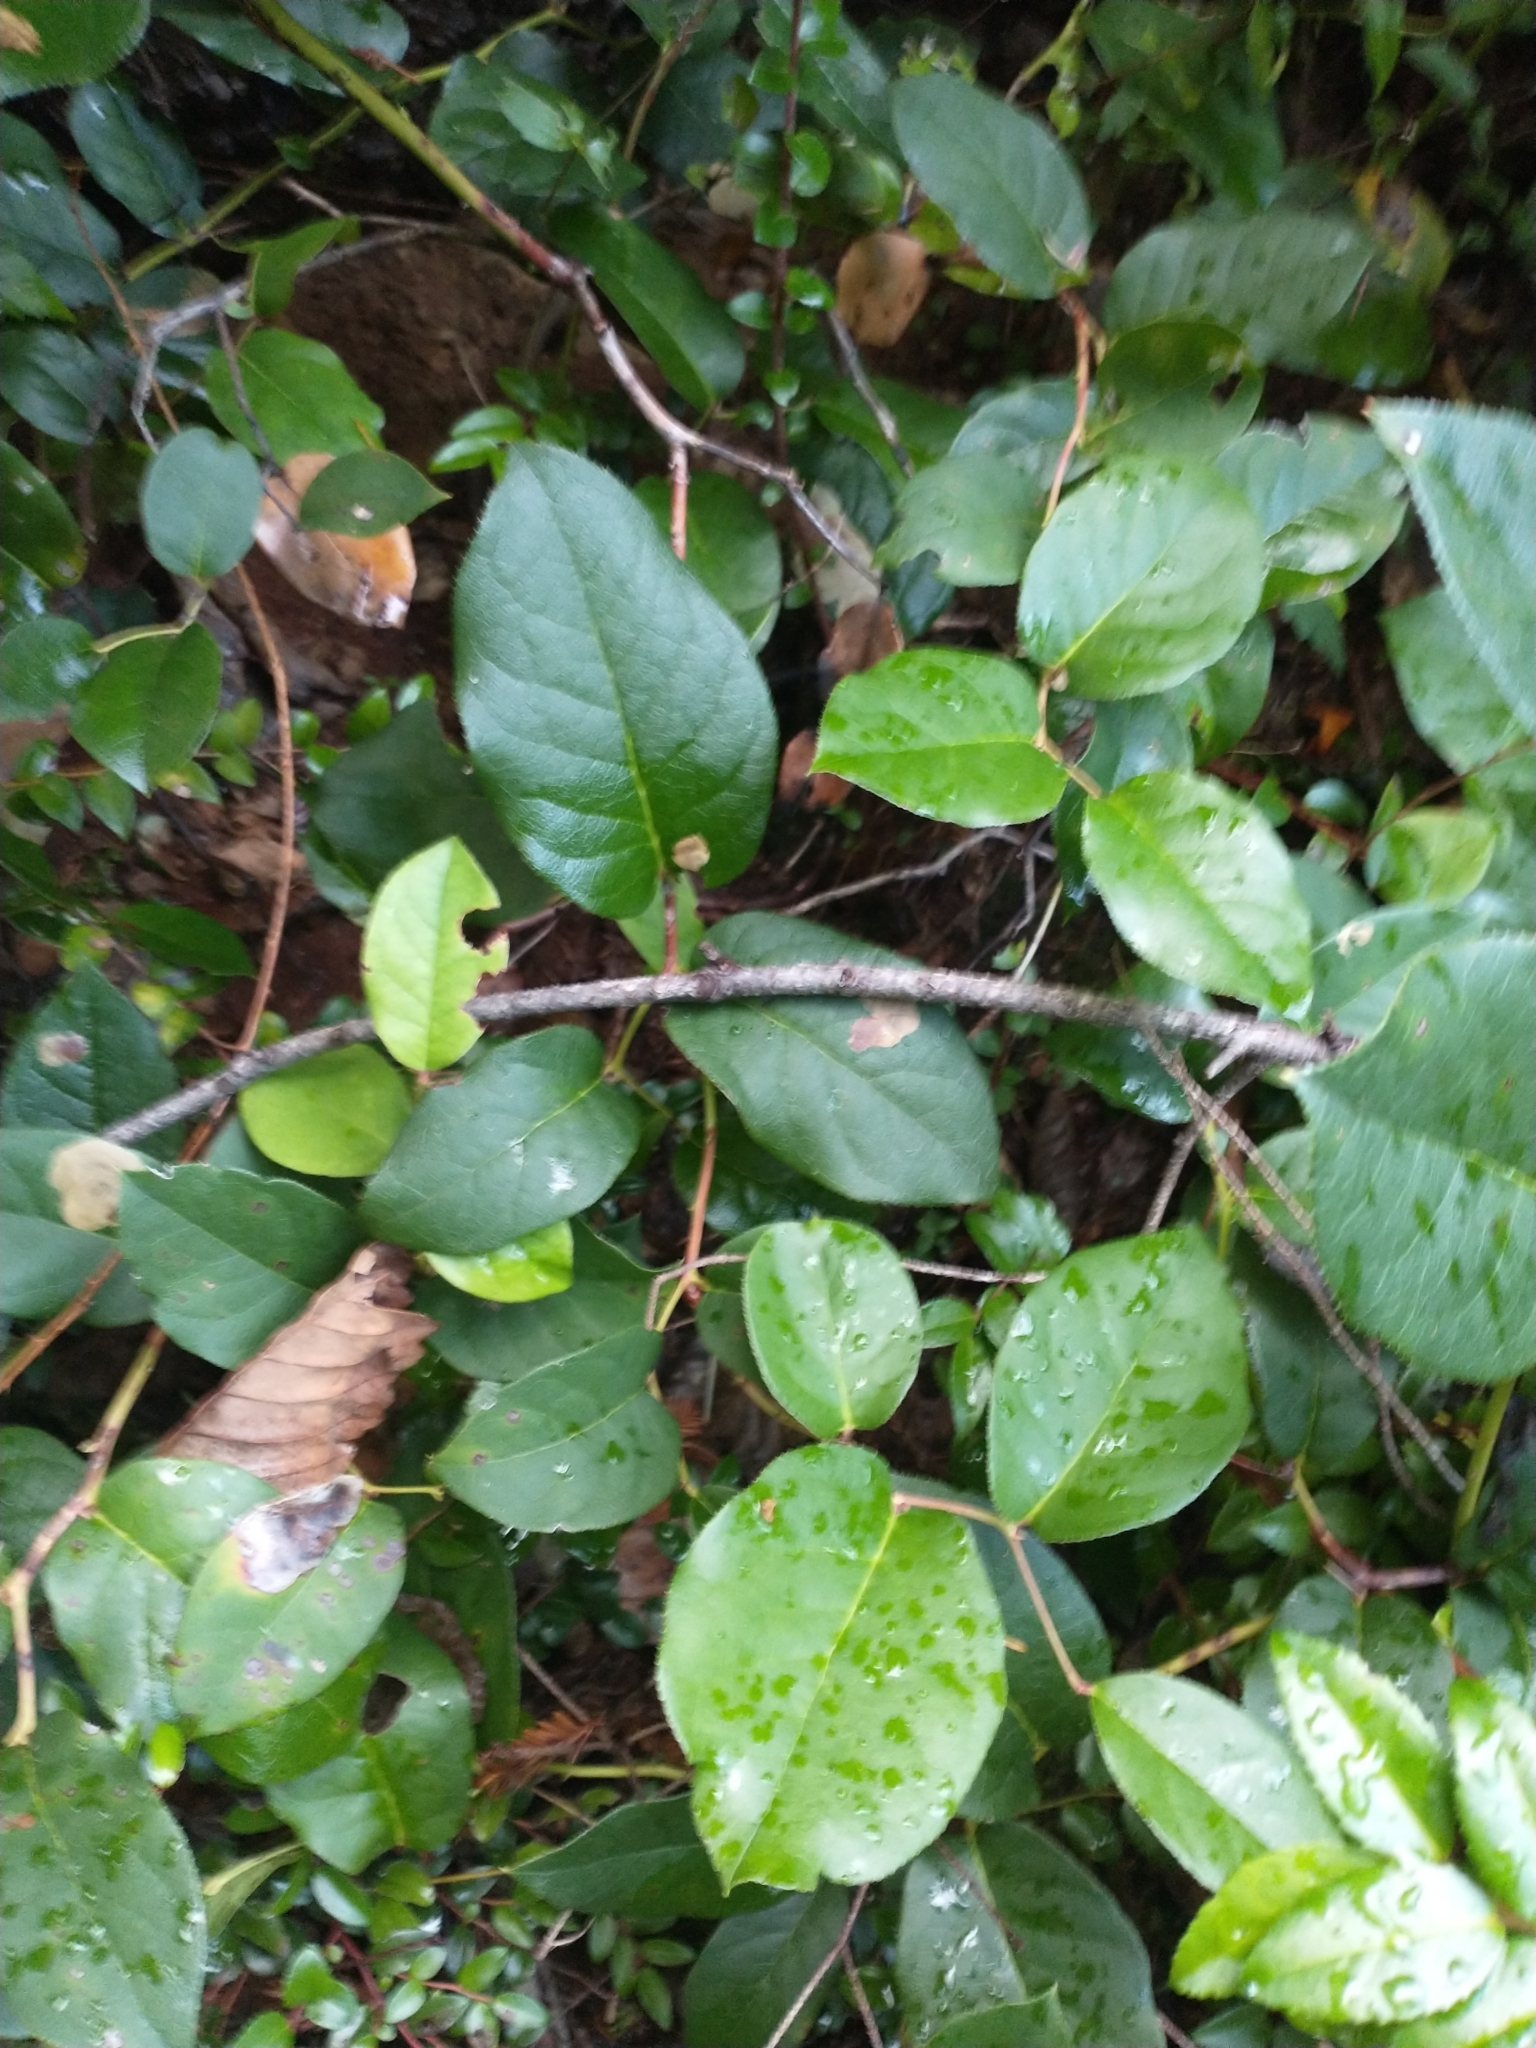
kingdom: Plantae
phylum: Tracheophyta
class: Magnoliopsida
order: Ericales
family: Ericaceae
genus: Gaultheria
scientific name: Gaultheria shallon
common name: Shallon
